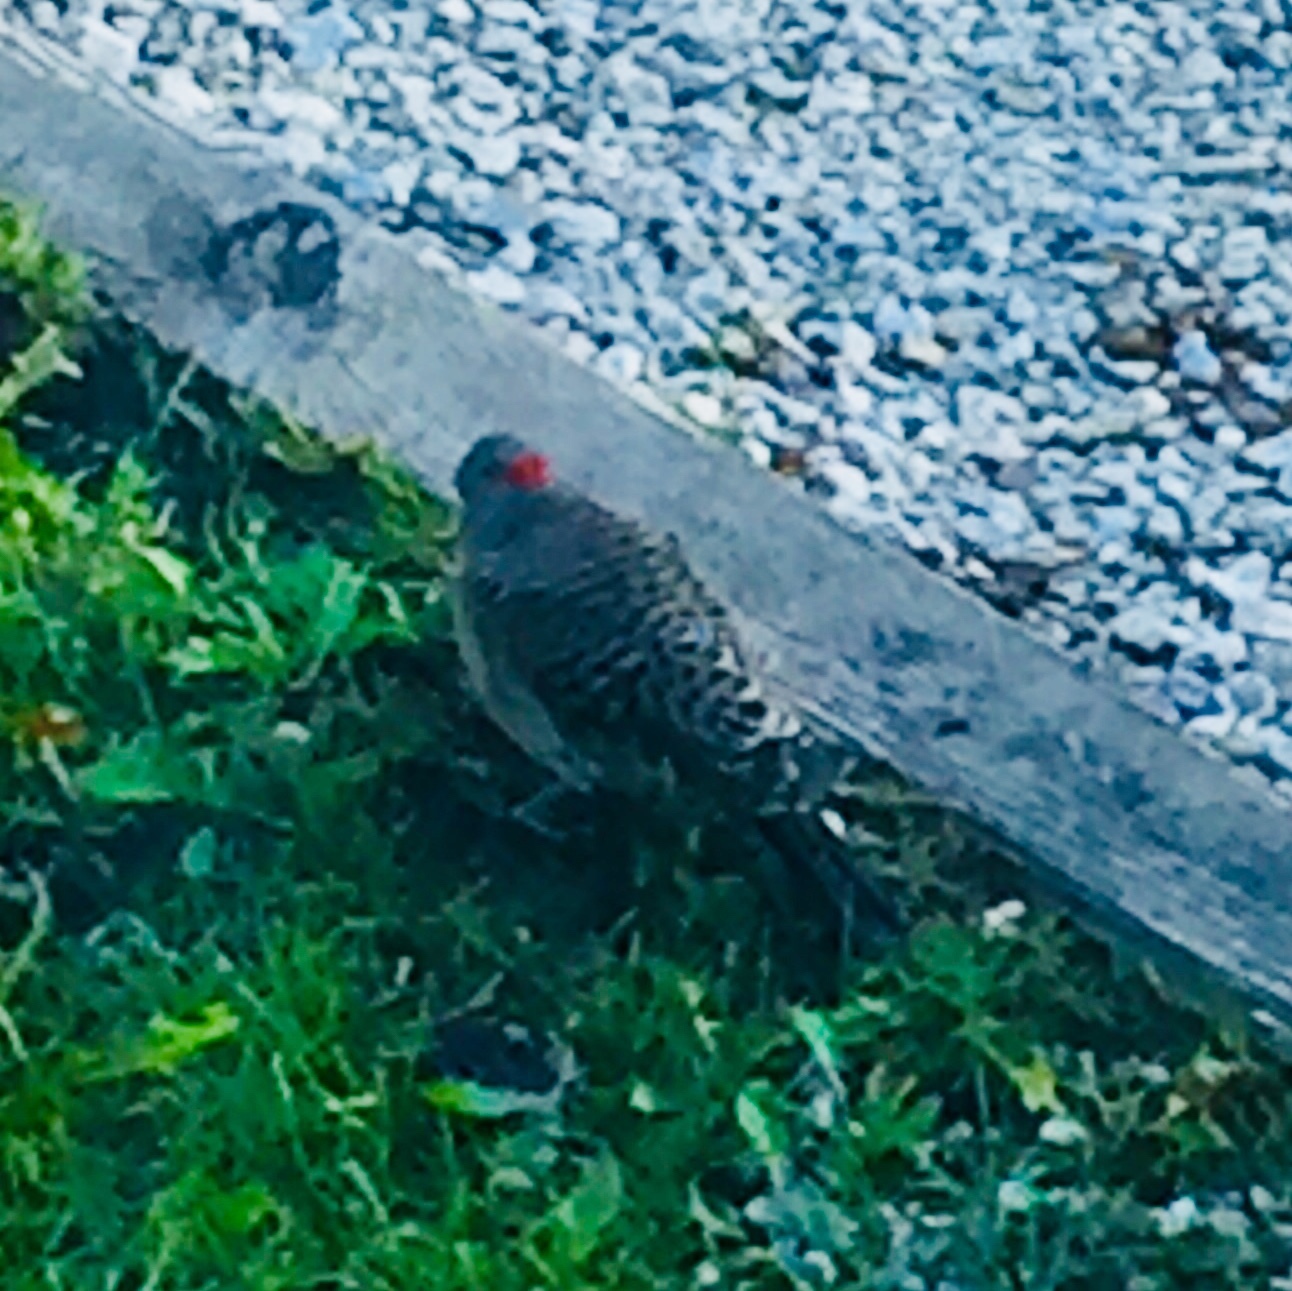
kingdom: Animalia
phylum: Chordata
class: Aves
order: Piciformes
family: Picidae
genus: Colaptes
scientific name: Colaptes auratus
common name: Northern flicker
